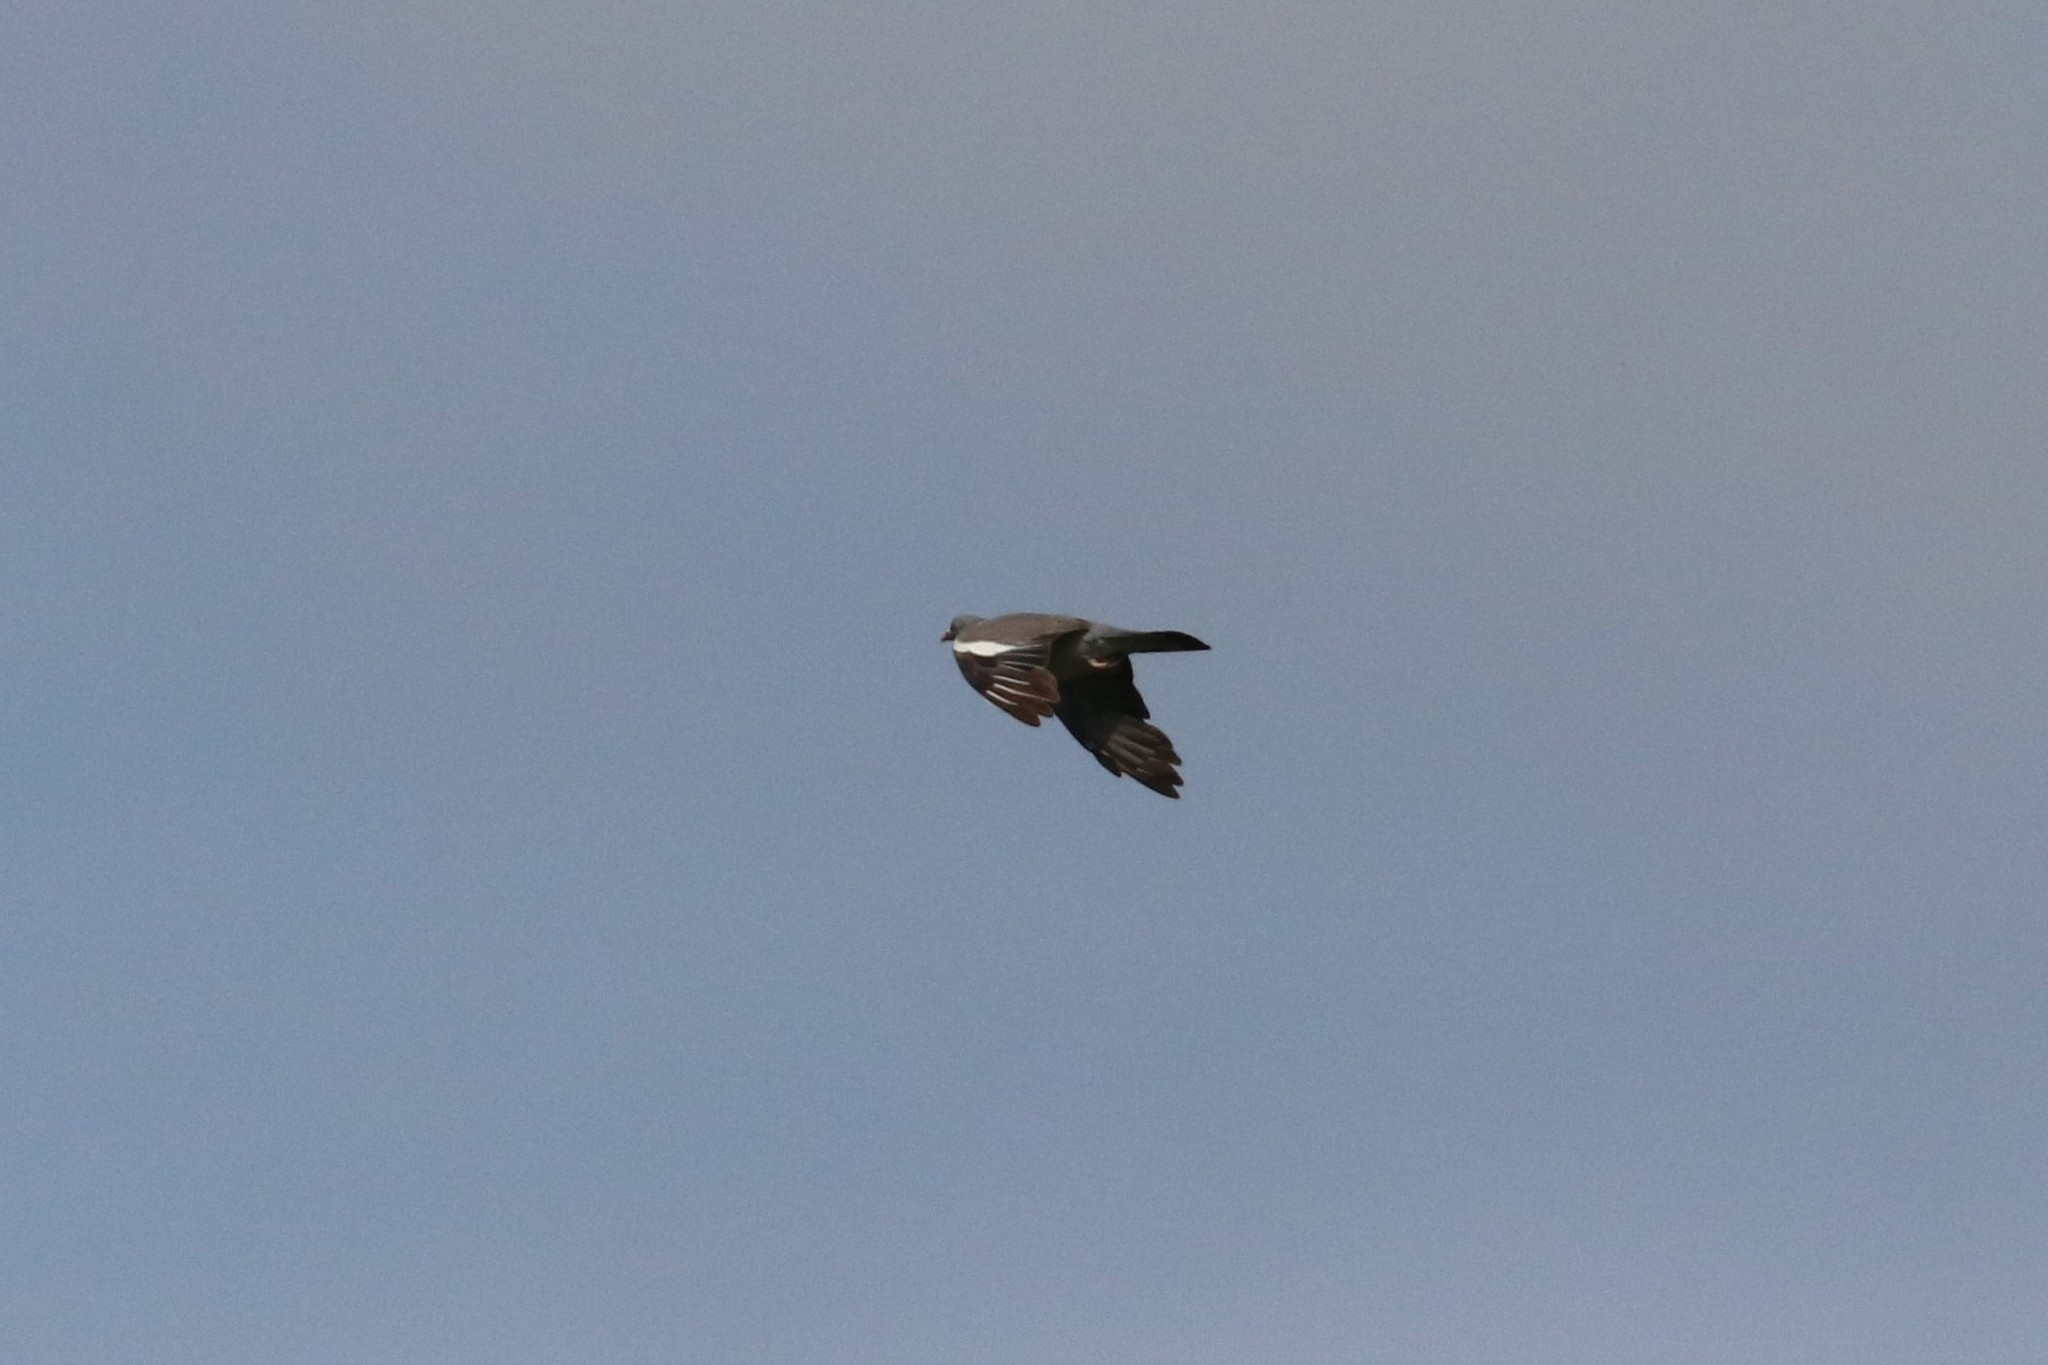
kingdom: Animalia
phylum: Chordata
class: Aves
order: Columbiformes
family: Columbidae
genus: Columba
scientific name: Columba palumbus
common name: Common wood pigeon
